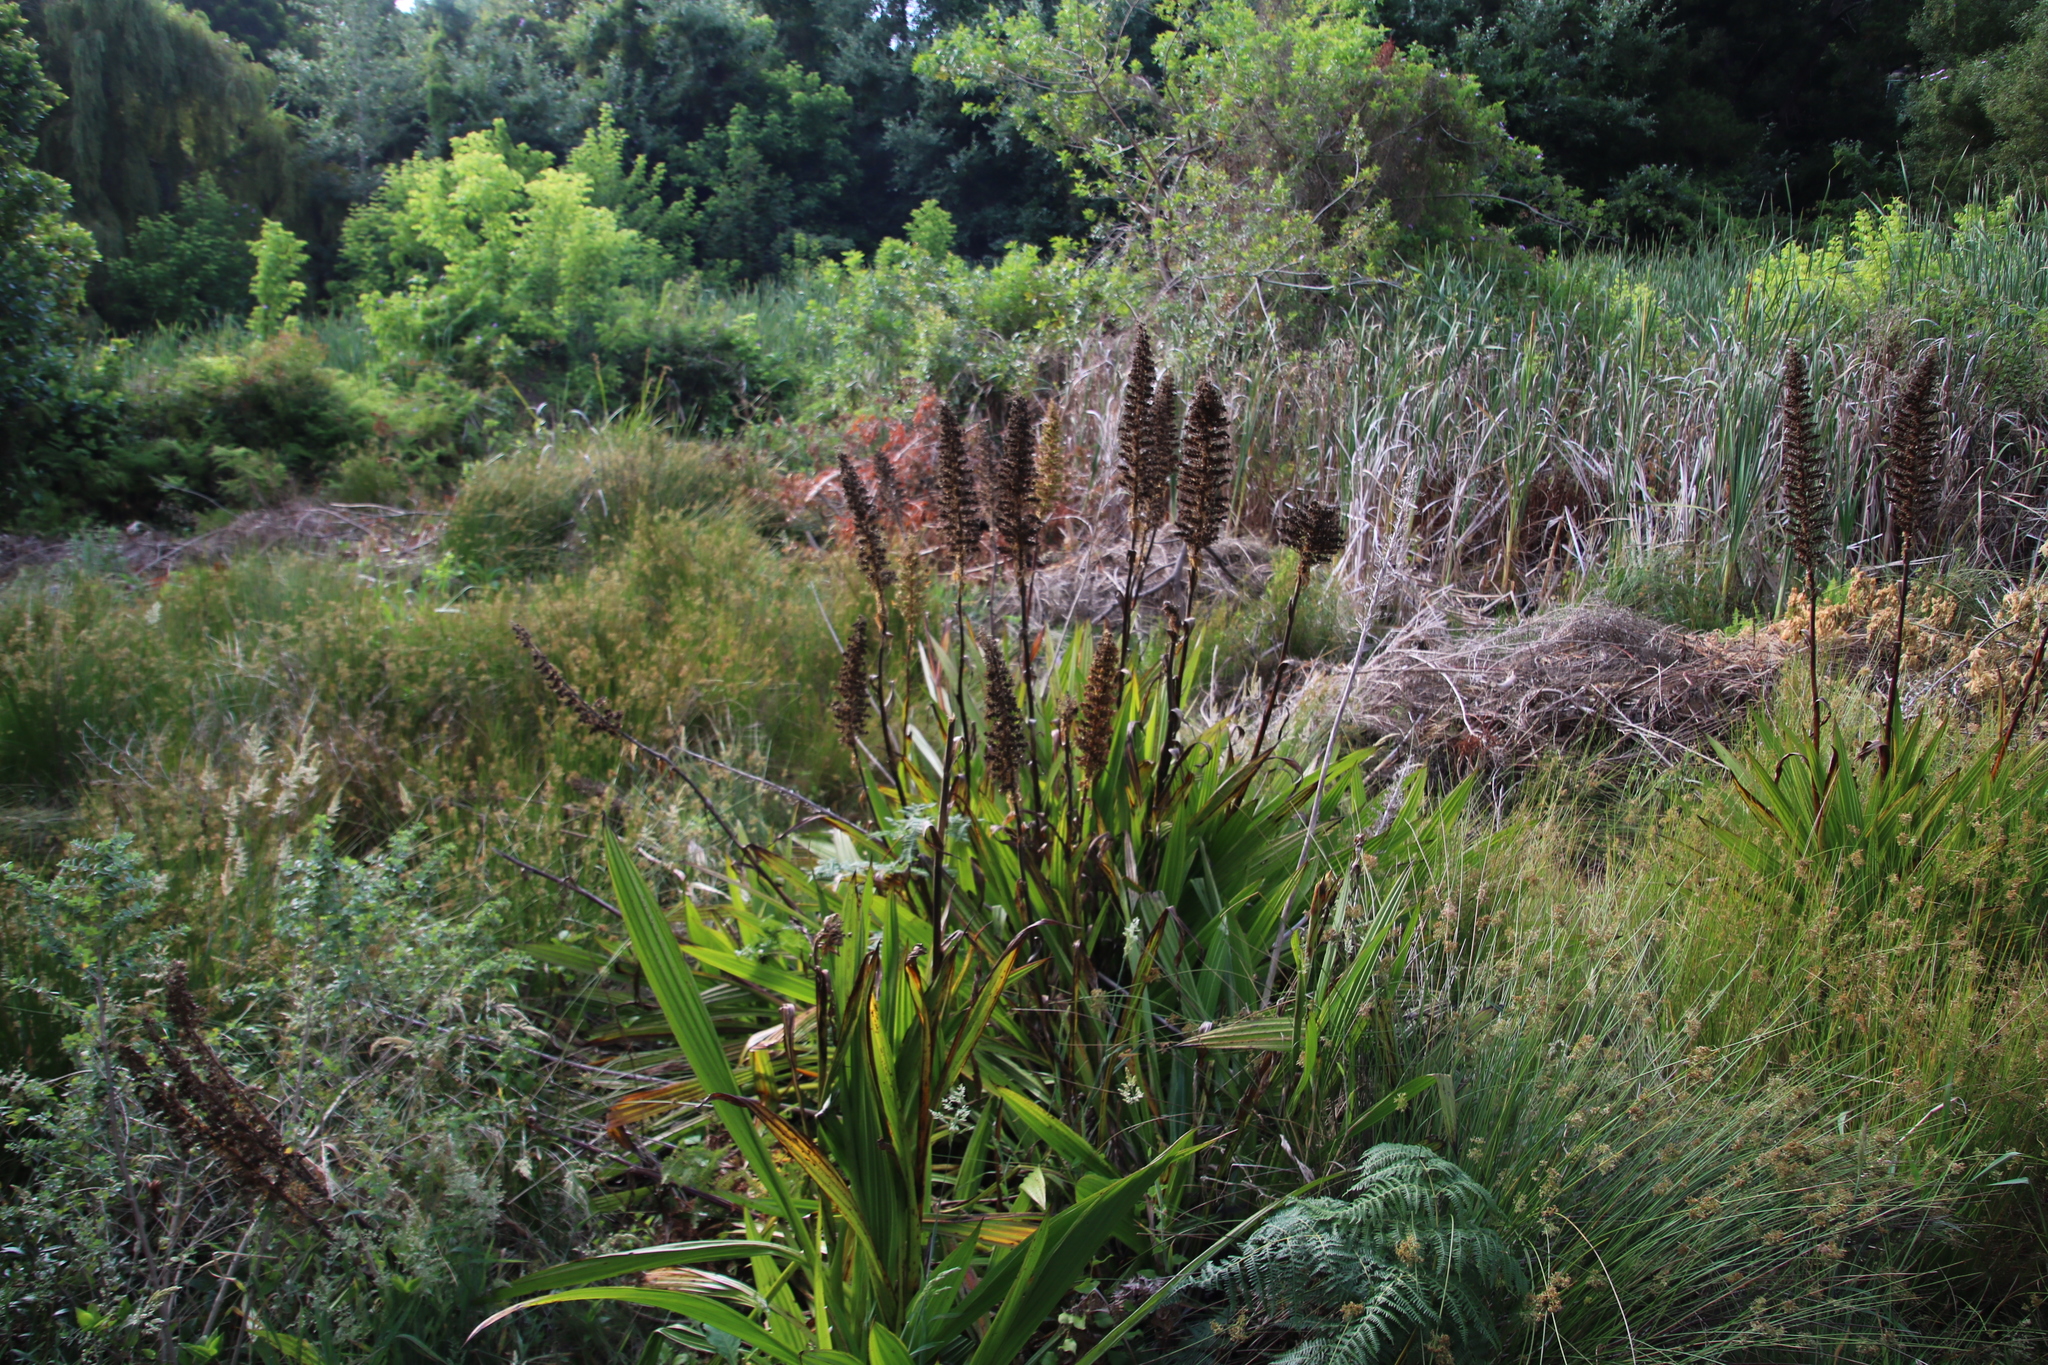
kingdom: Plantae
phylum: Tracheophyta
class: Liliopsida
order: Commelinales
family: Haemodoraceae
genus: Wachendorfia
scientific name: Wachendorfia thyrsiflora
